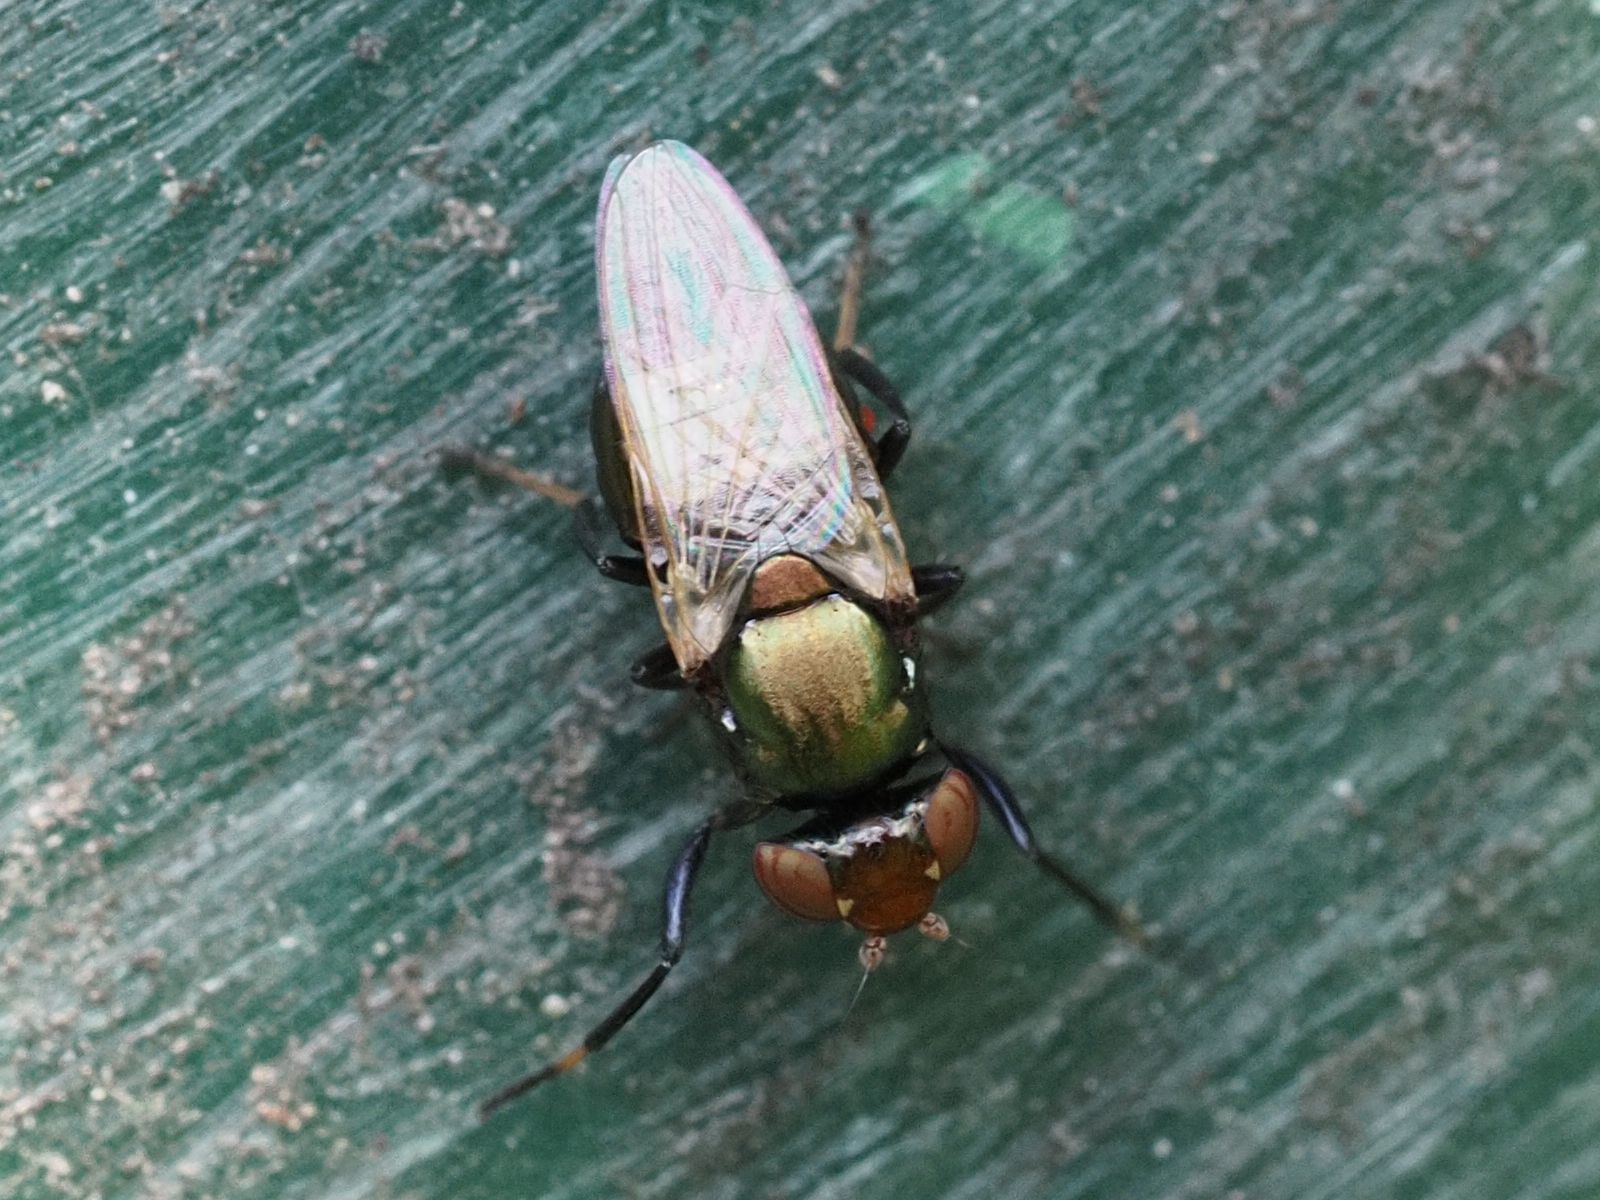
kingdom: Animalia
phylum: Arthropoda
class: Insecta
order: Diptera
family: Ulidiidae
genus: Physiphora
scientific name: Physiphora alceae
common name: Picture-winged fly
